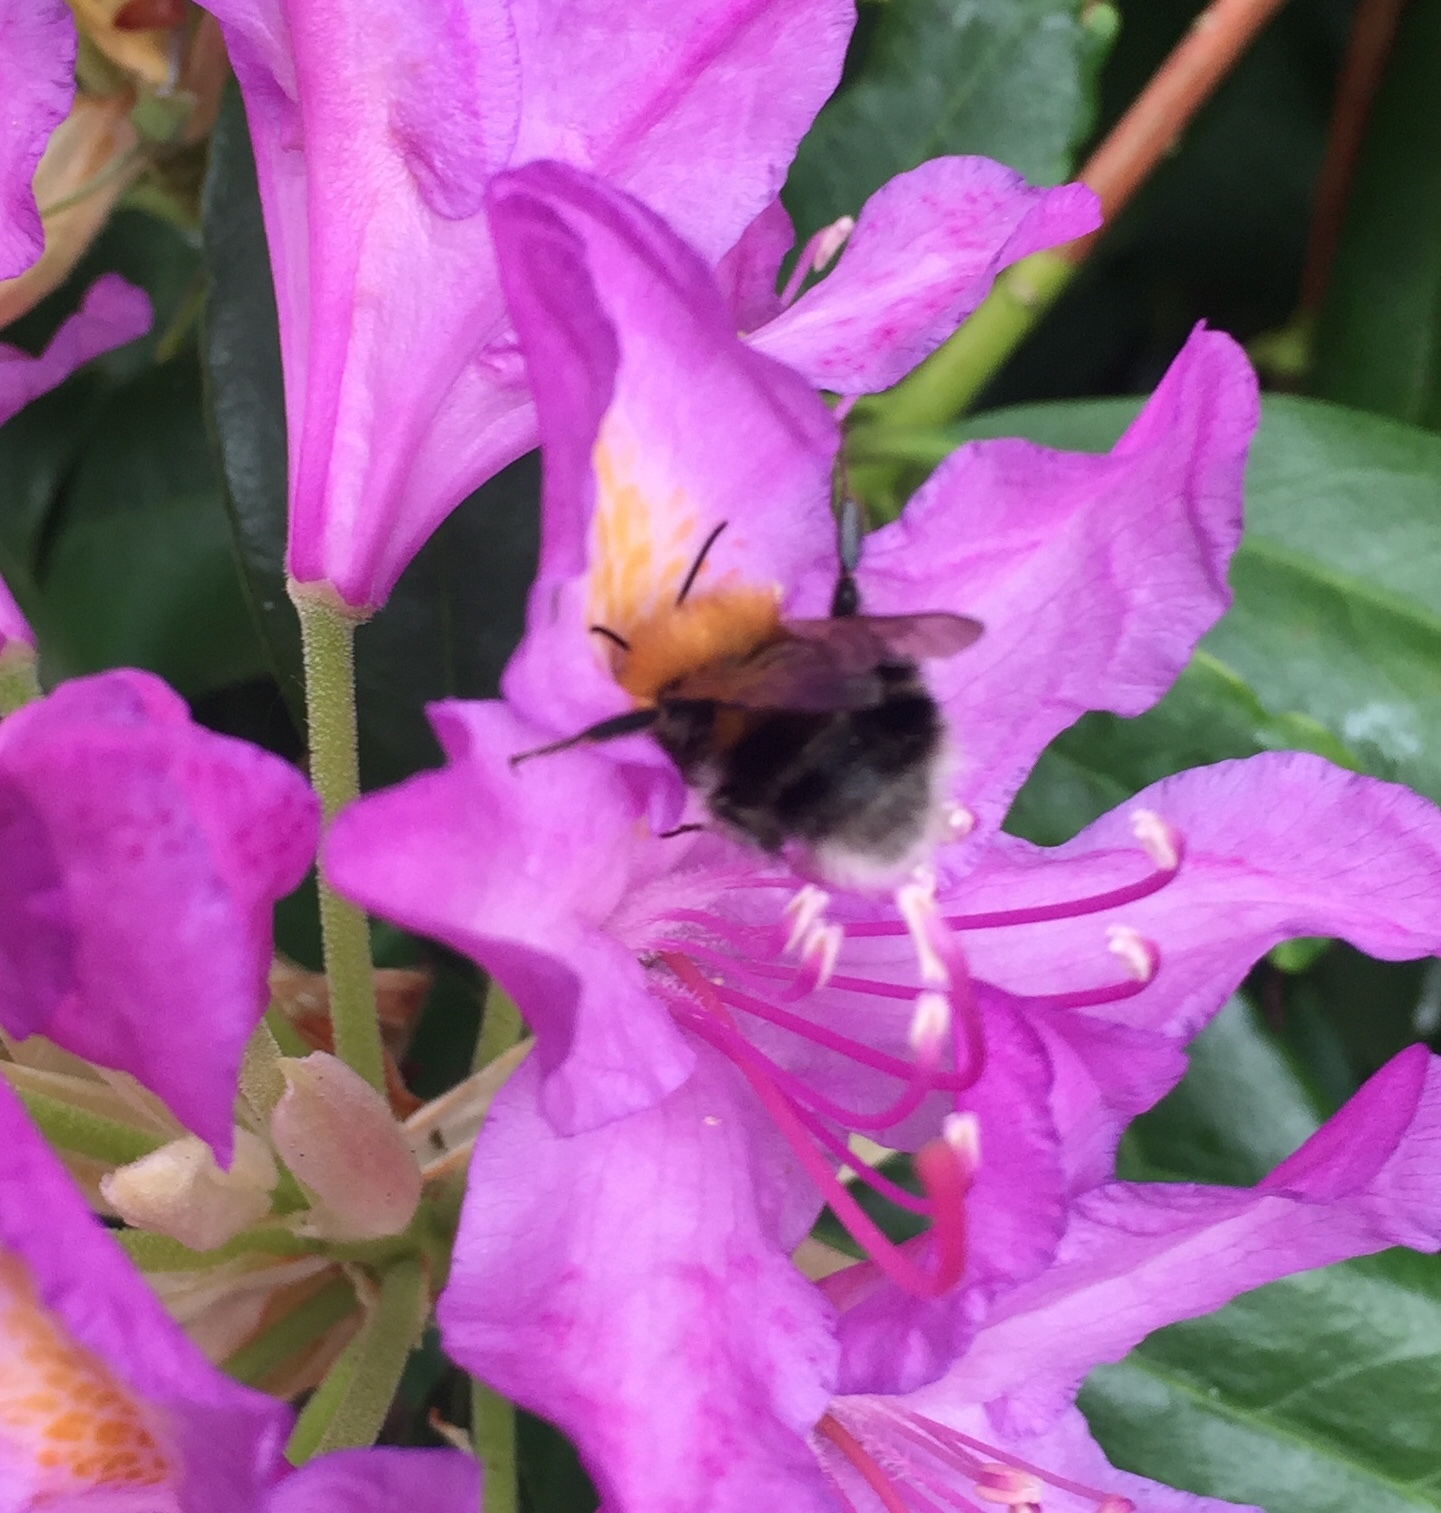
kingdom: Animalia
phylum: Arthropoda
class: Insecta
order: Hymenoptera
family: Apidae
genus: Bombus
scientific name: Bombus hypnorum
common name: New garden bumblebee
